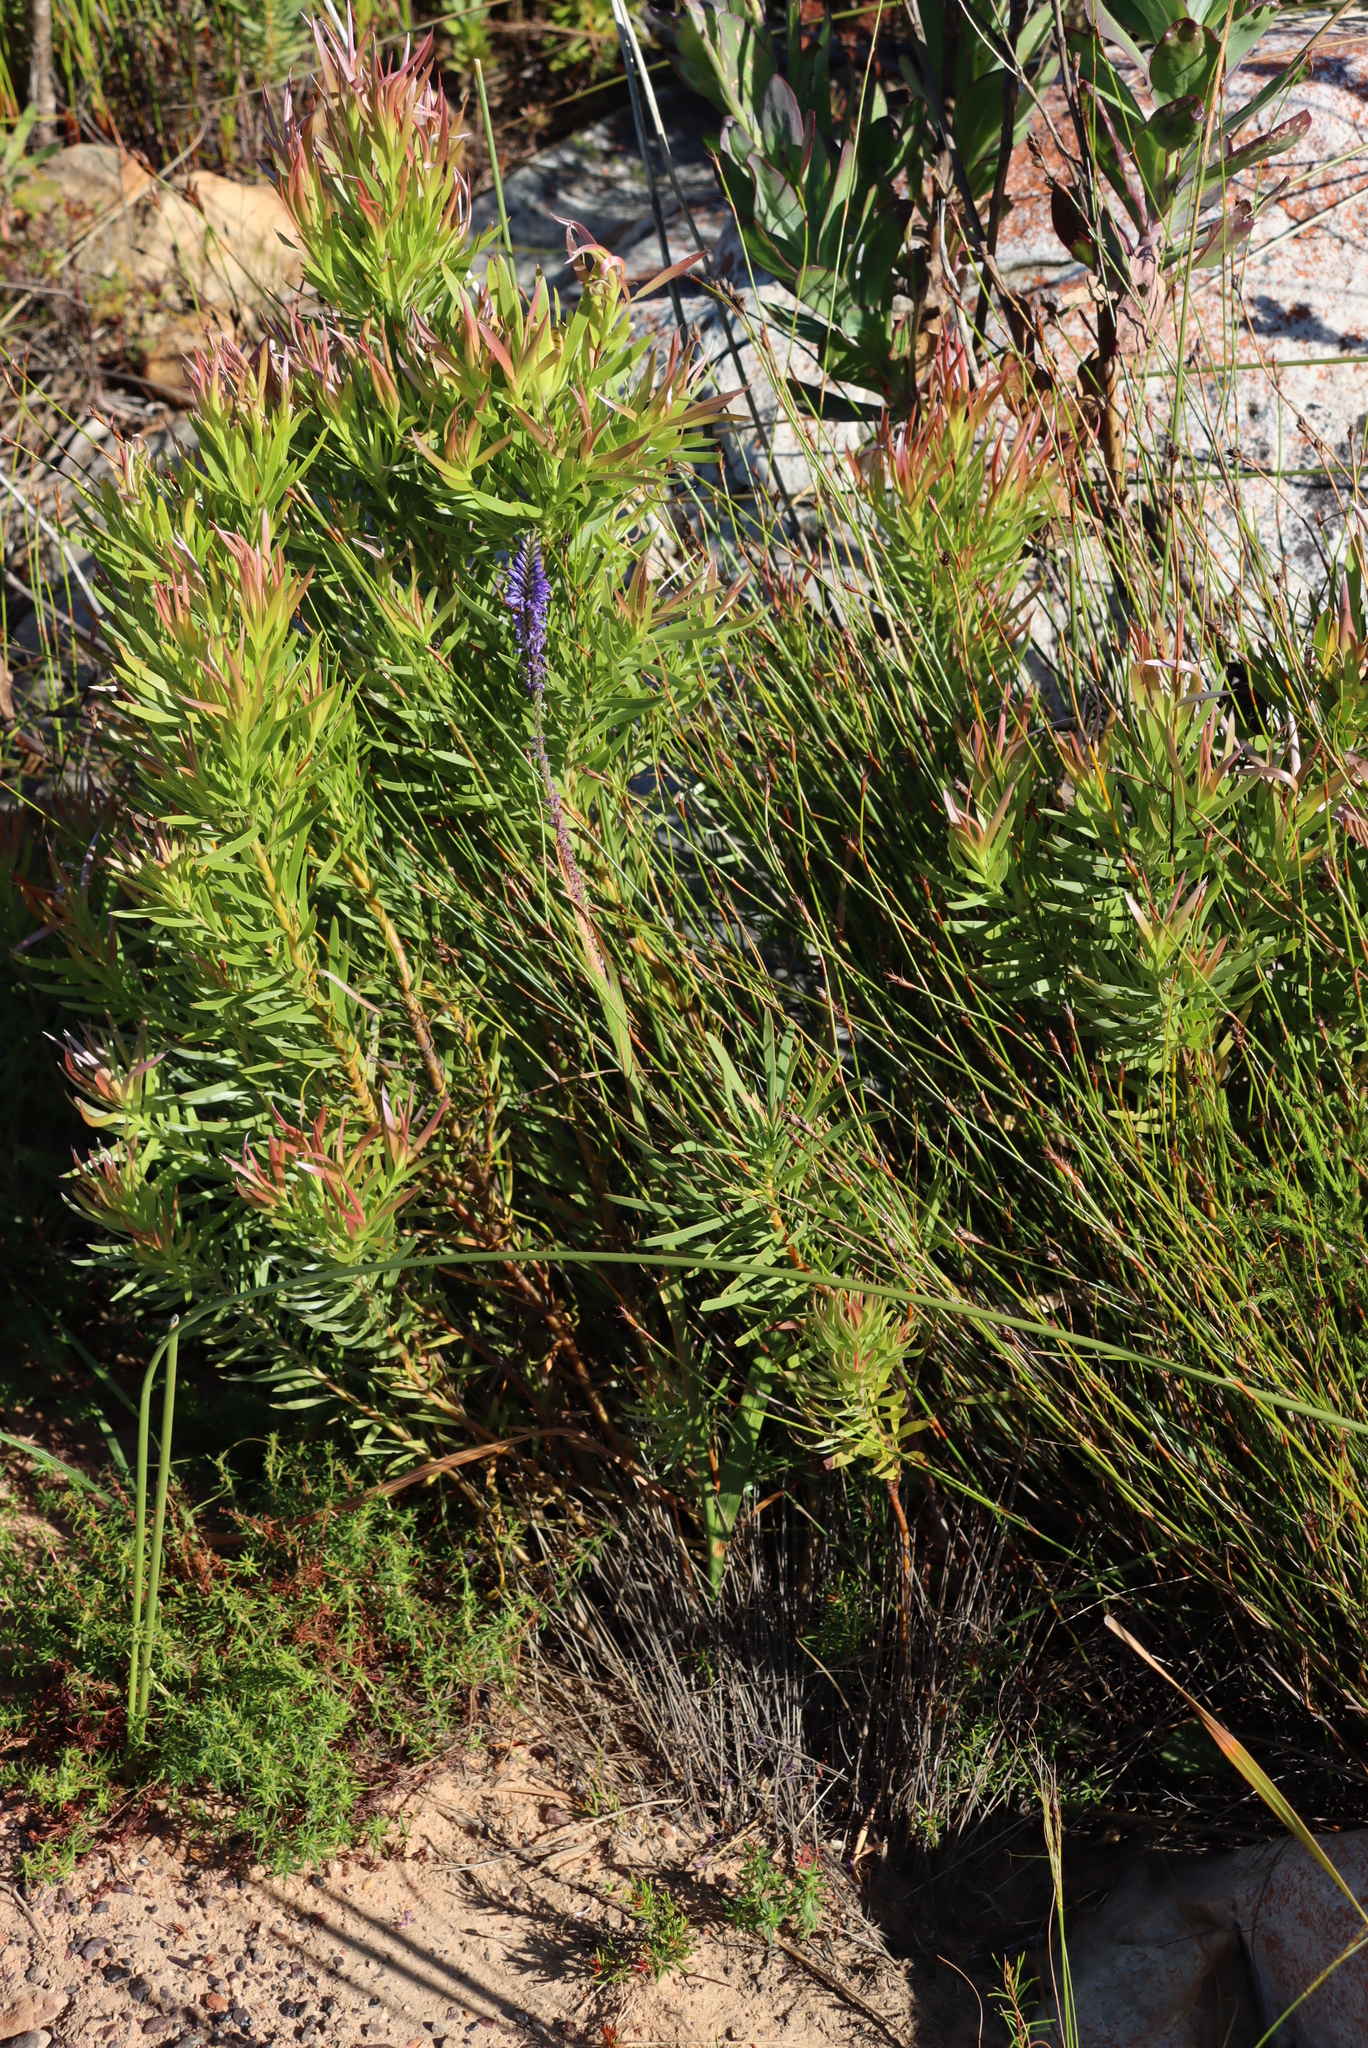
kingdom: Plantae
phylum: Tracheophyta
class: Liliopsida
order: Asparagales
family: Iridaceae
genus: Micranthus
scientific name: Micranthus alopecuroides
